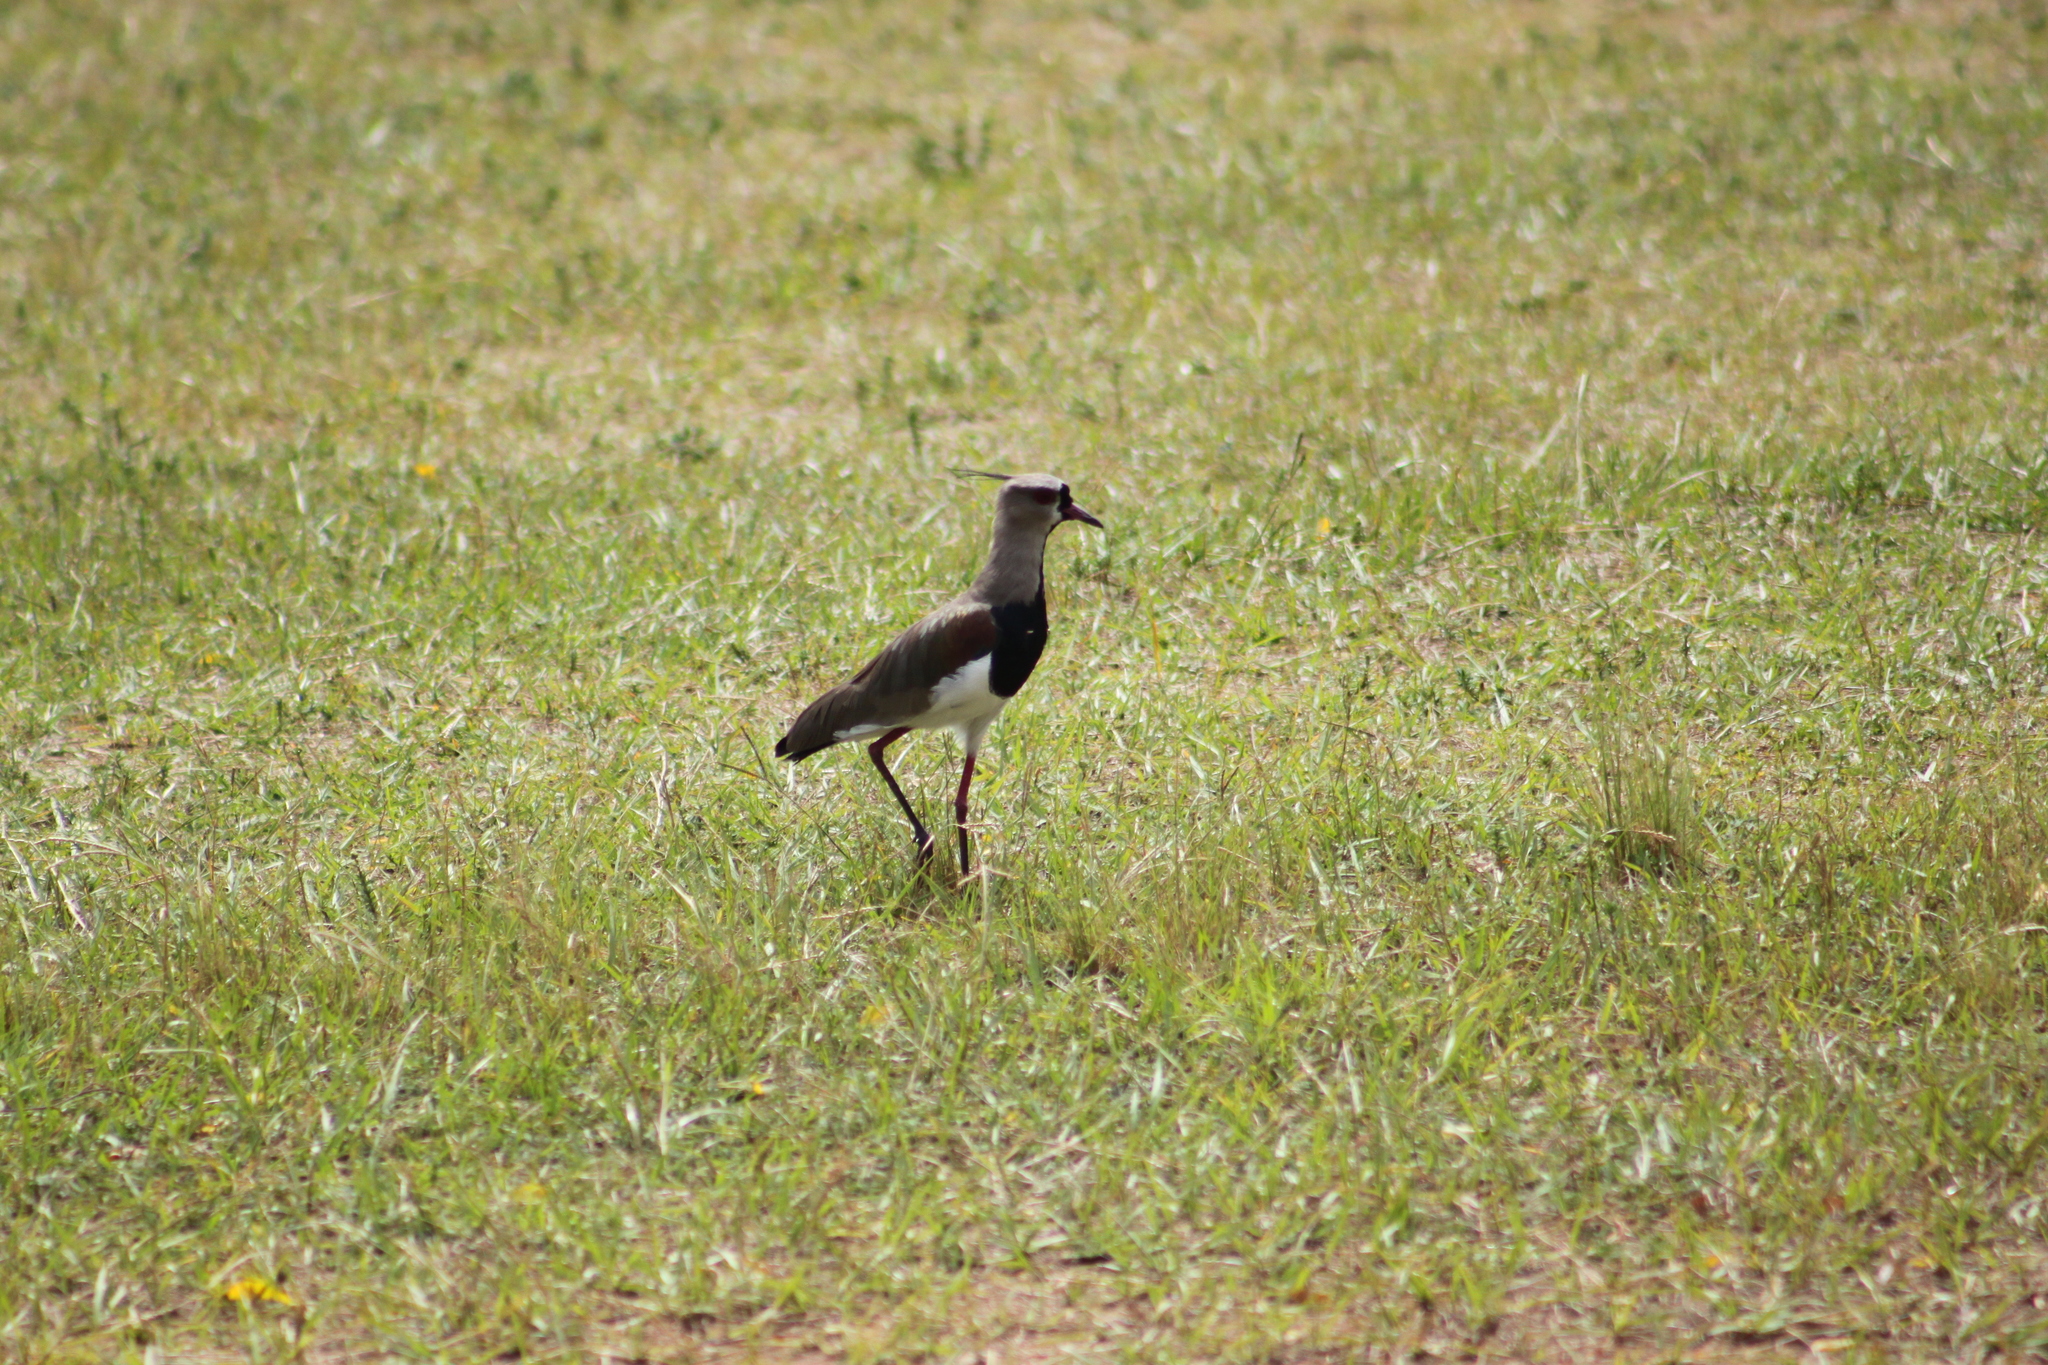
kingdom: Animalia
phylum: Chordata
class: Aves
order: Charadriiformes
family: Charadriidae
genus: Vanellus
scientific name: Vanellus chilensis
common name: Southern lapwing
